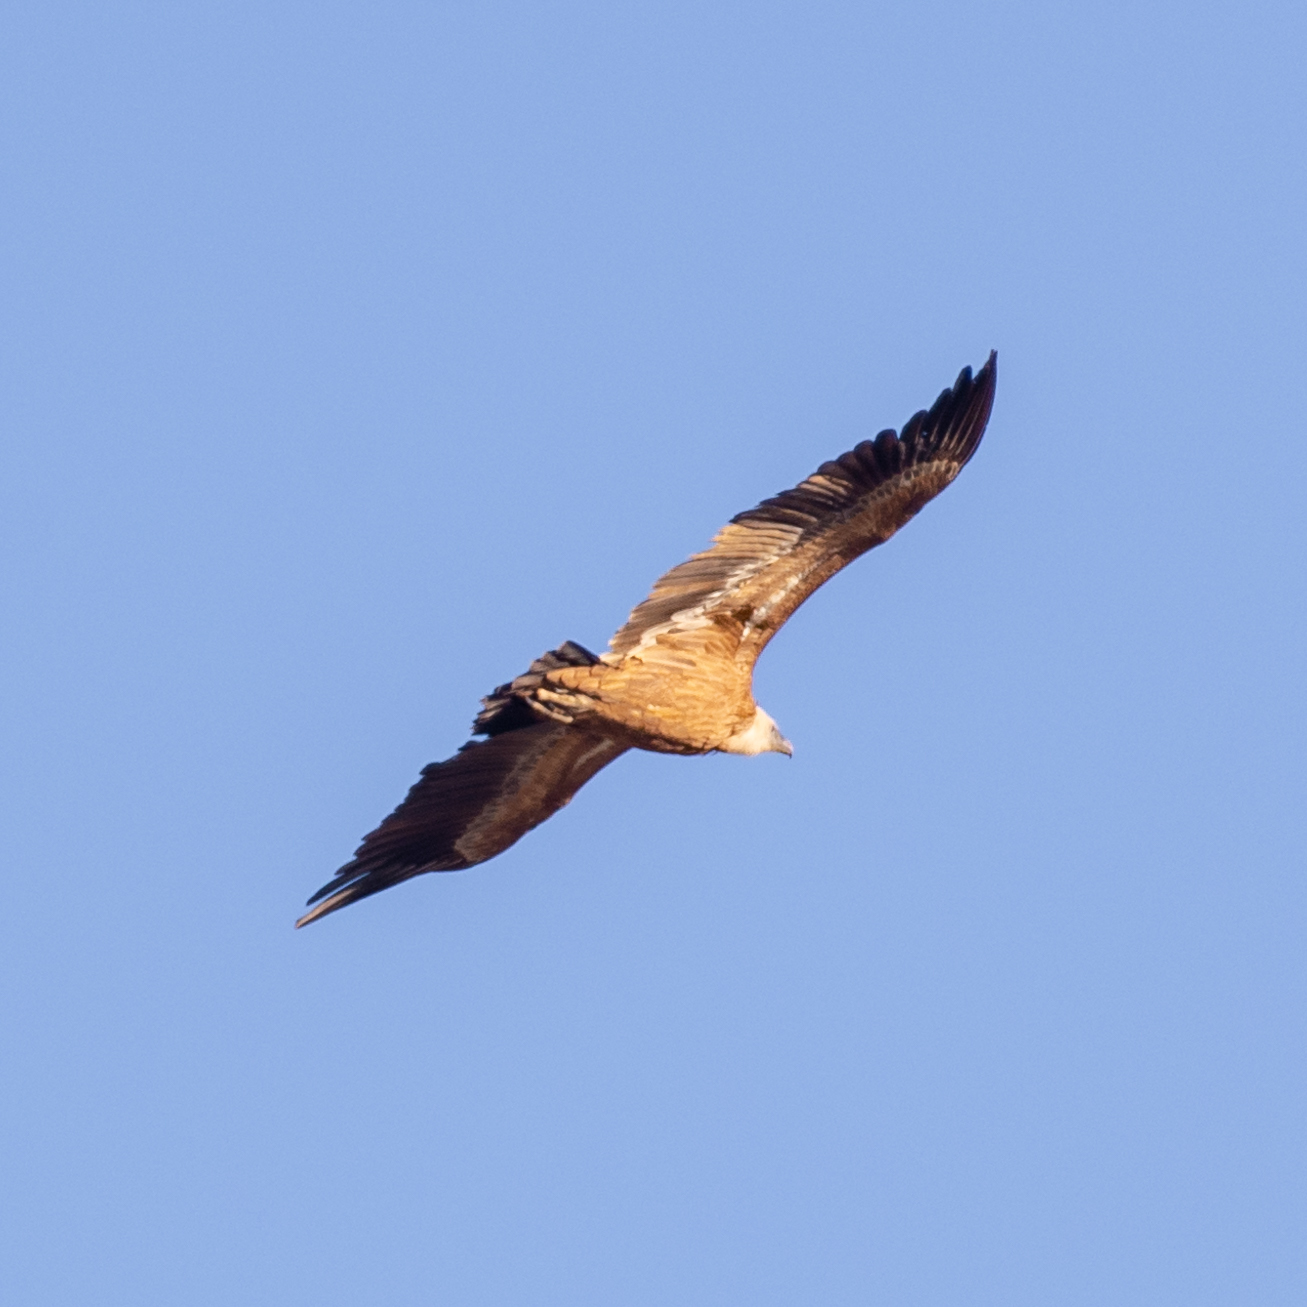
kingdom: Animalia
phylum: Chordata
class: Aves
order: Accipitriformes
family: Accipitridae
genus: Gyps
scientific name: Gyps fulvus
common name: Griffon vulture
